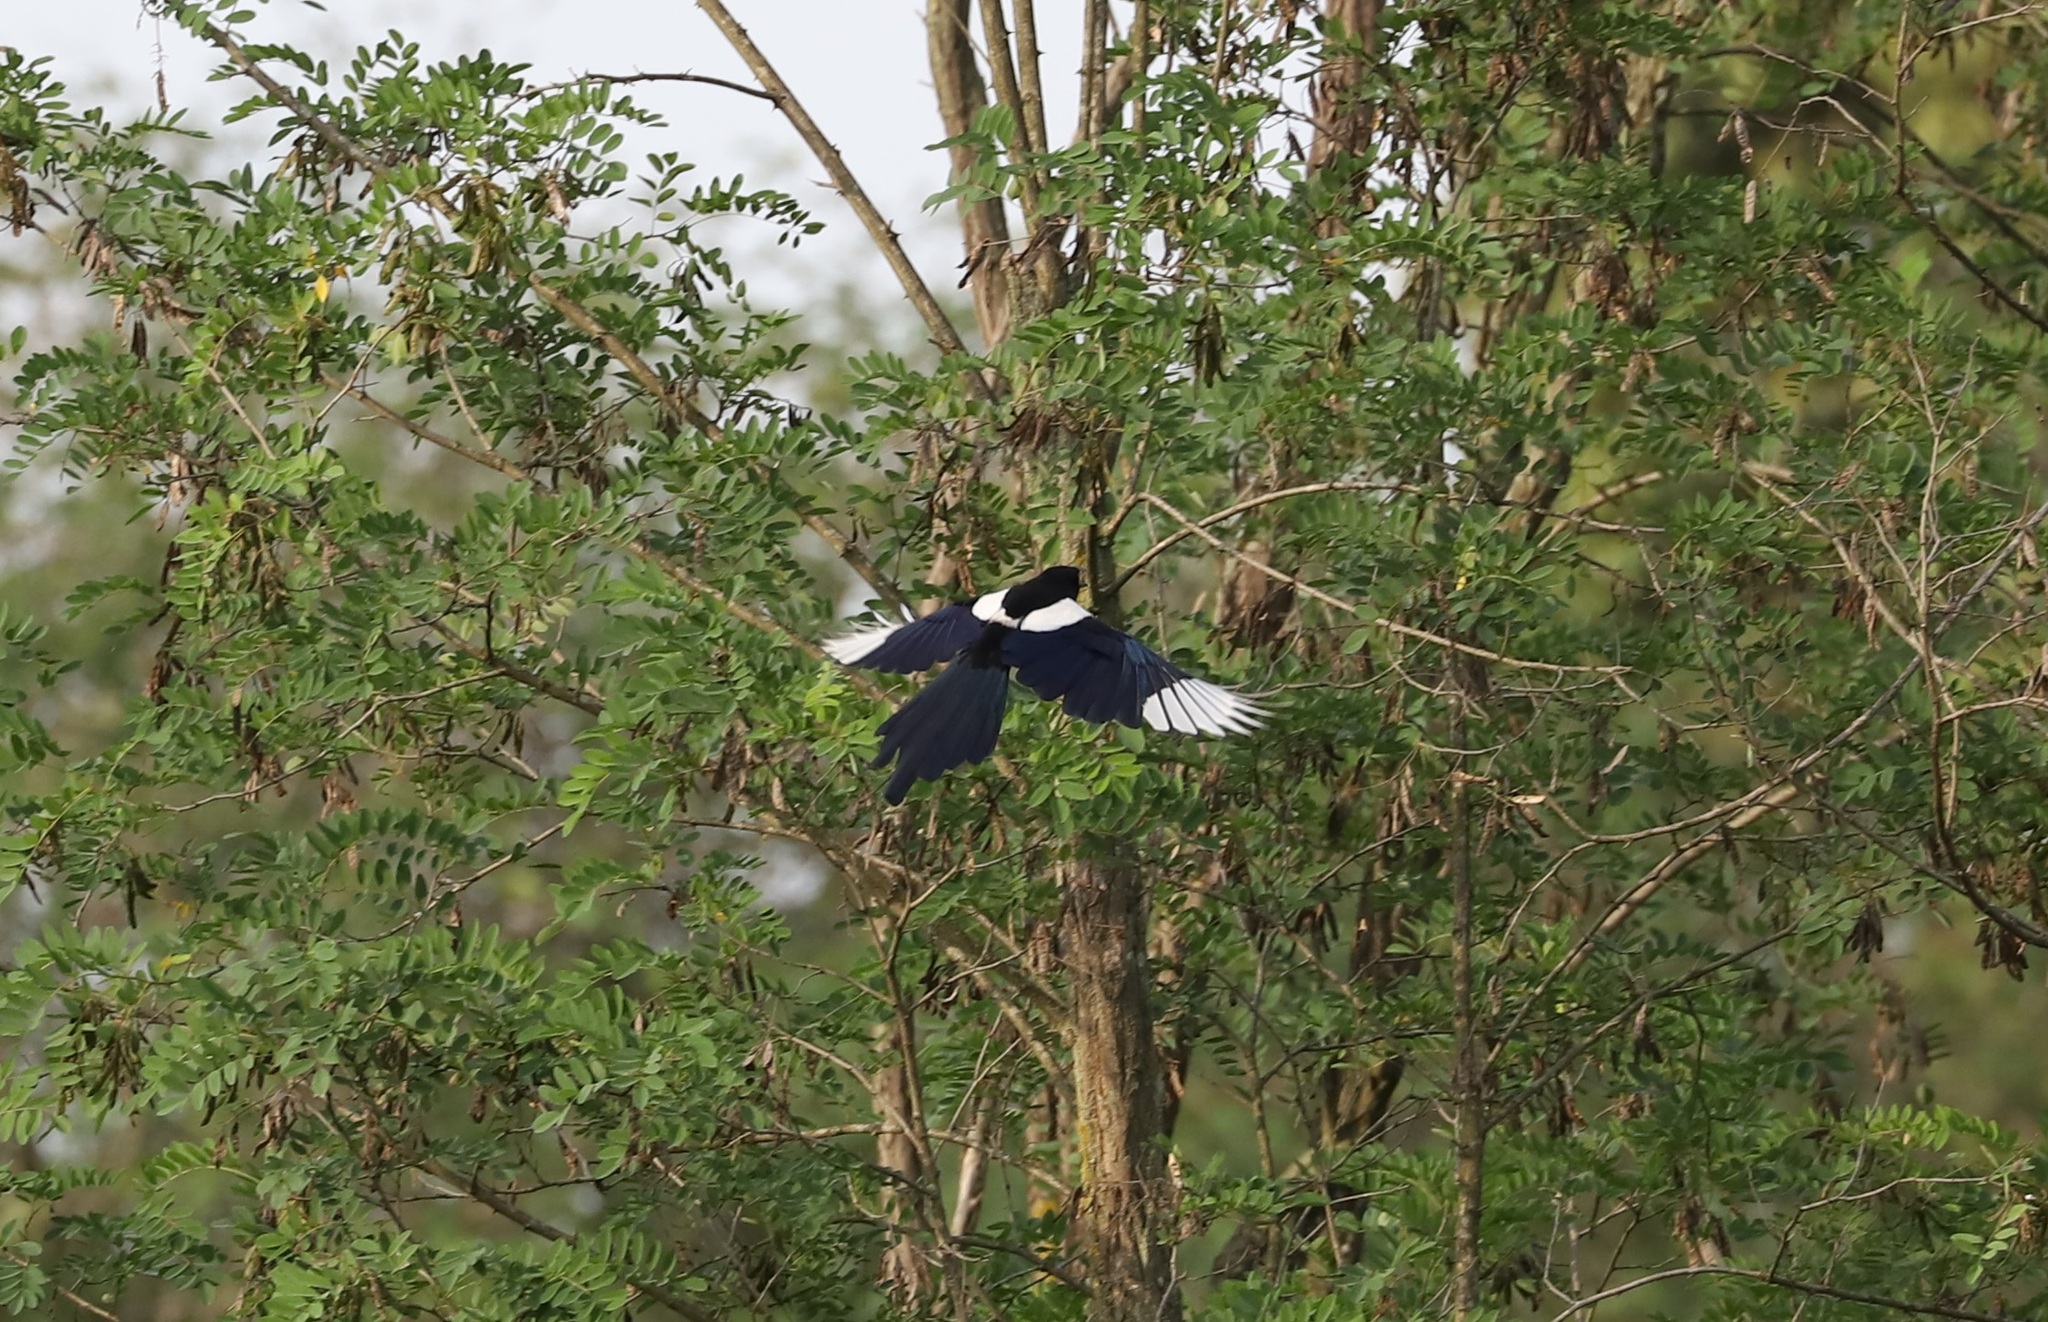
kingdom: Animalia
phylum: Chordata
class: Aves
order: Passeriformes
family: Corvidae
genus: Pica
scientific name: Pica serica
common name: Oriental magpie
